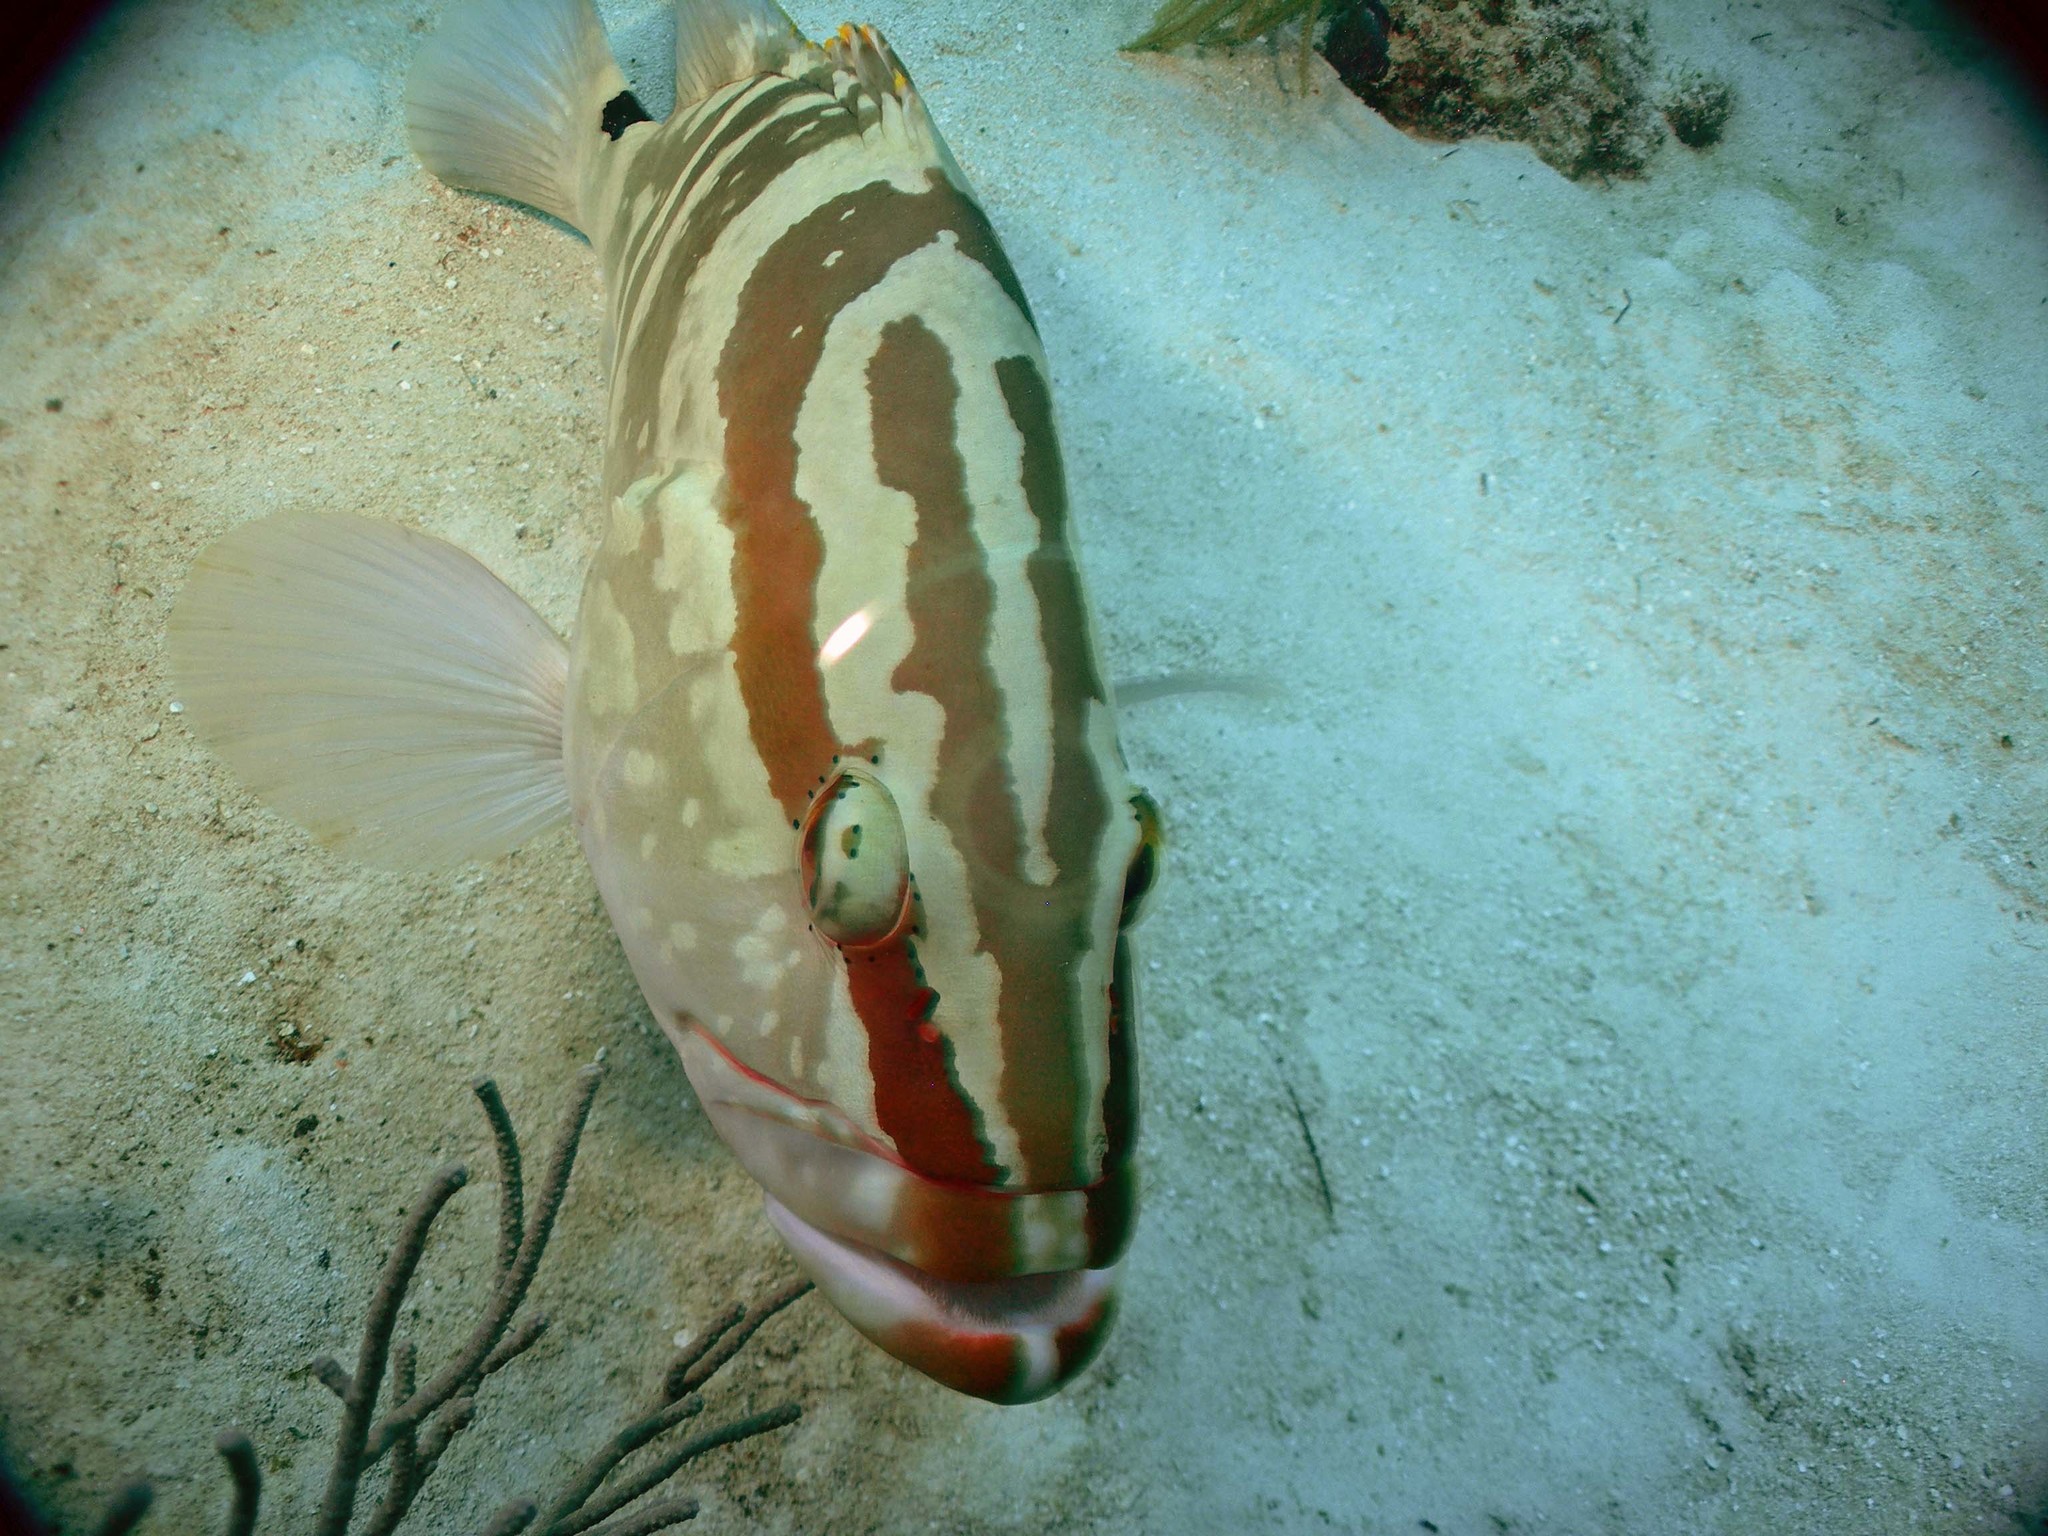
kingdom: Animalia
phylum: Chordata
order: Perciformes
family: Serranidae
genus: Epinephelus
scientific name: Epinephelus striatus
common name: Nassau grouper
